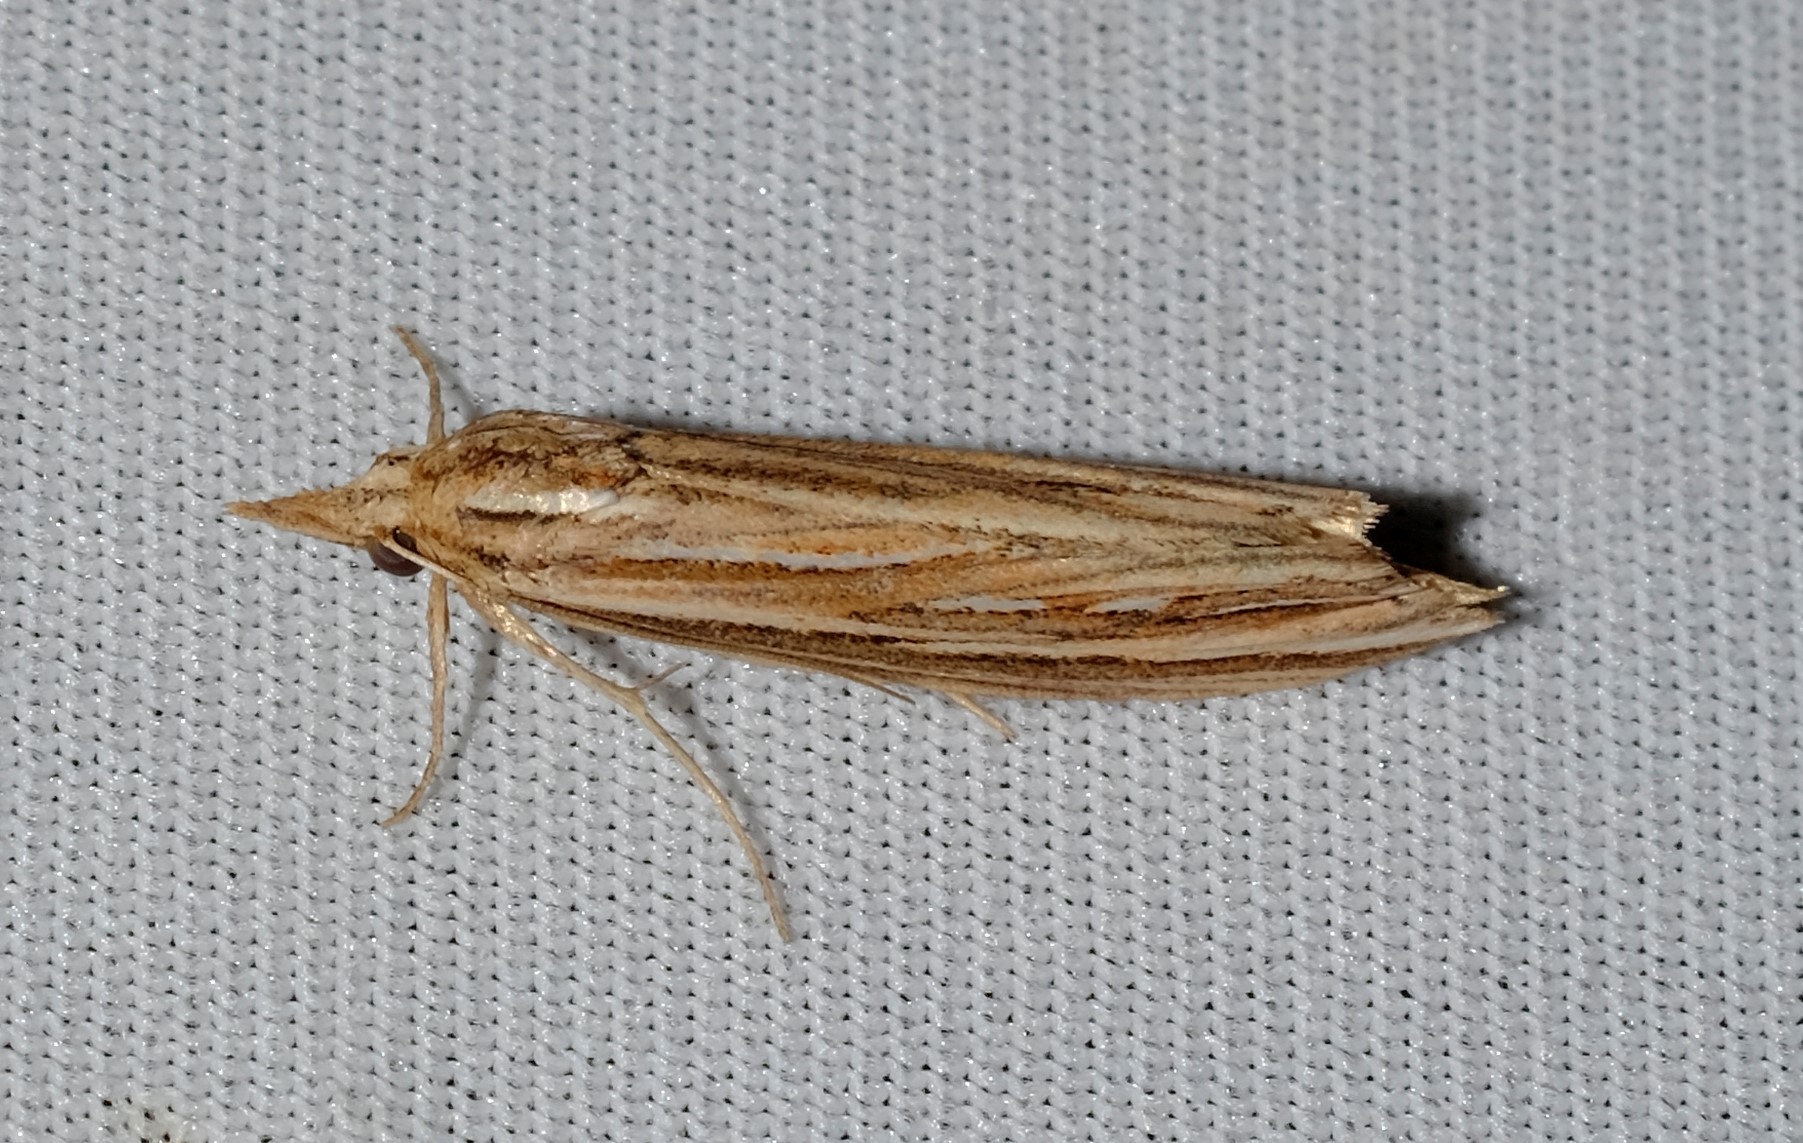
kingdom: Animalia
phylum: Arthropoda
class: Insecta
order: Lepidoptera
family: Erebidae
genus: Meyrickella
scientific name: Meyrickella ruptellus
